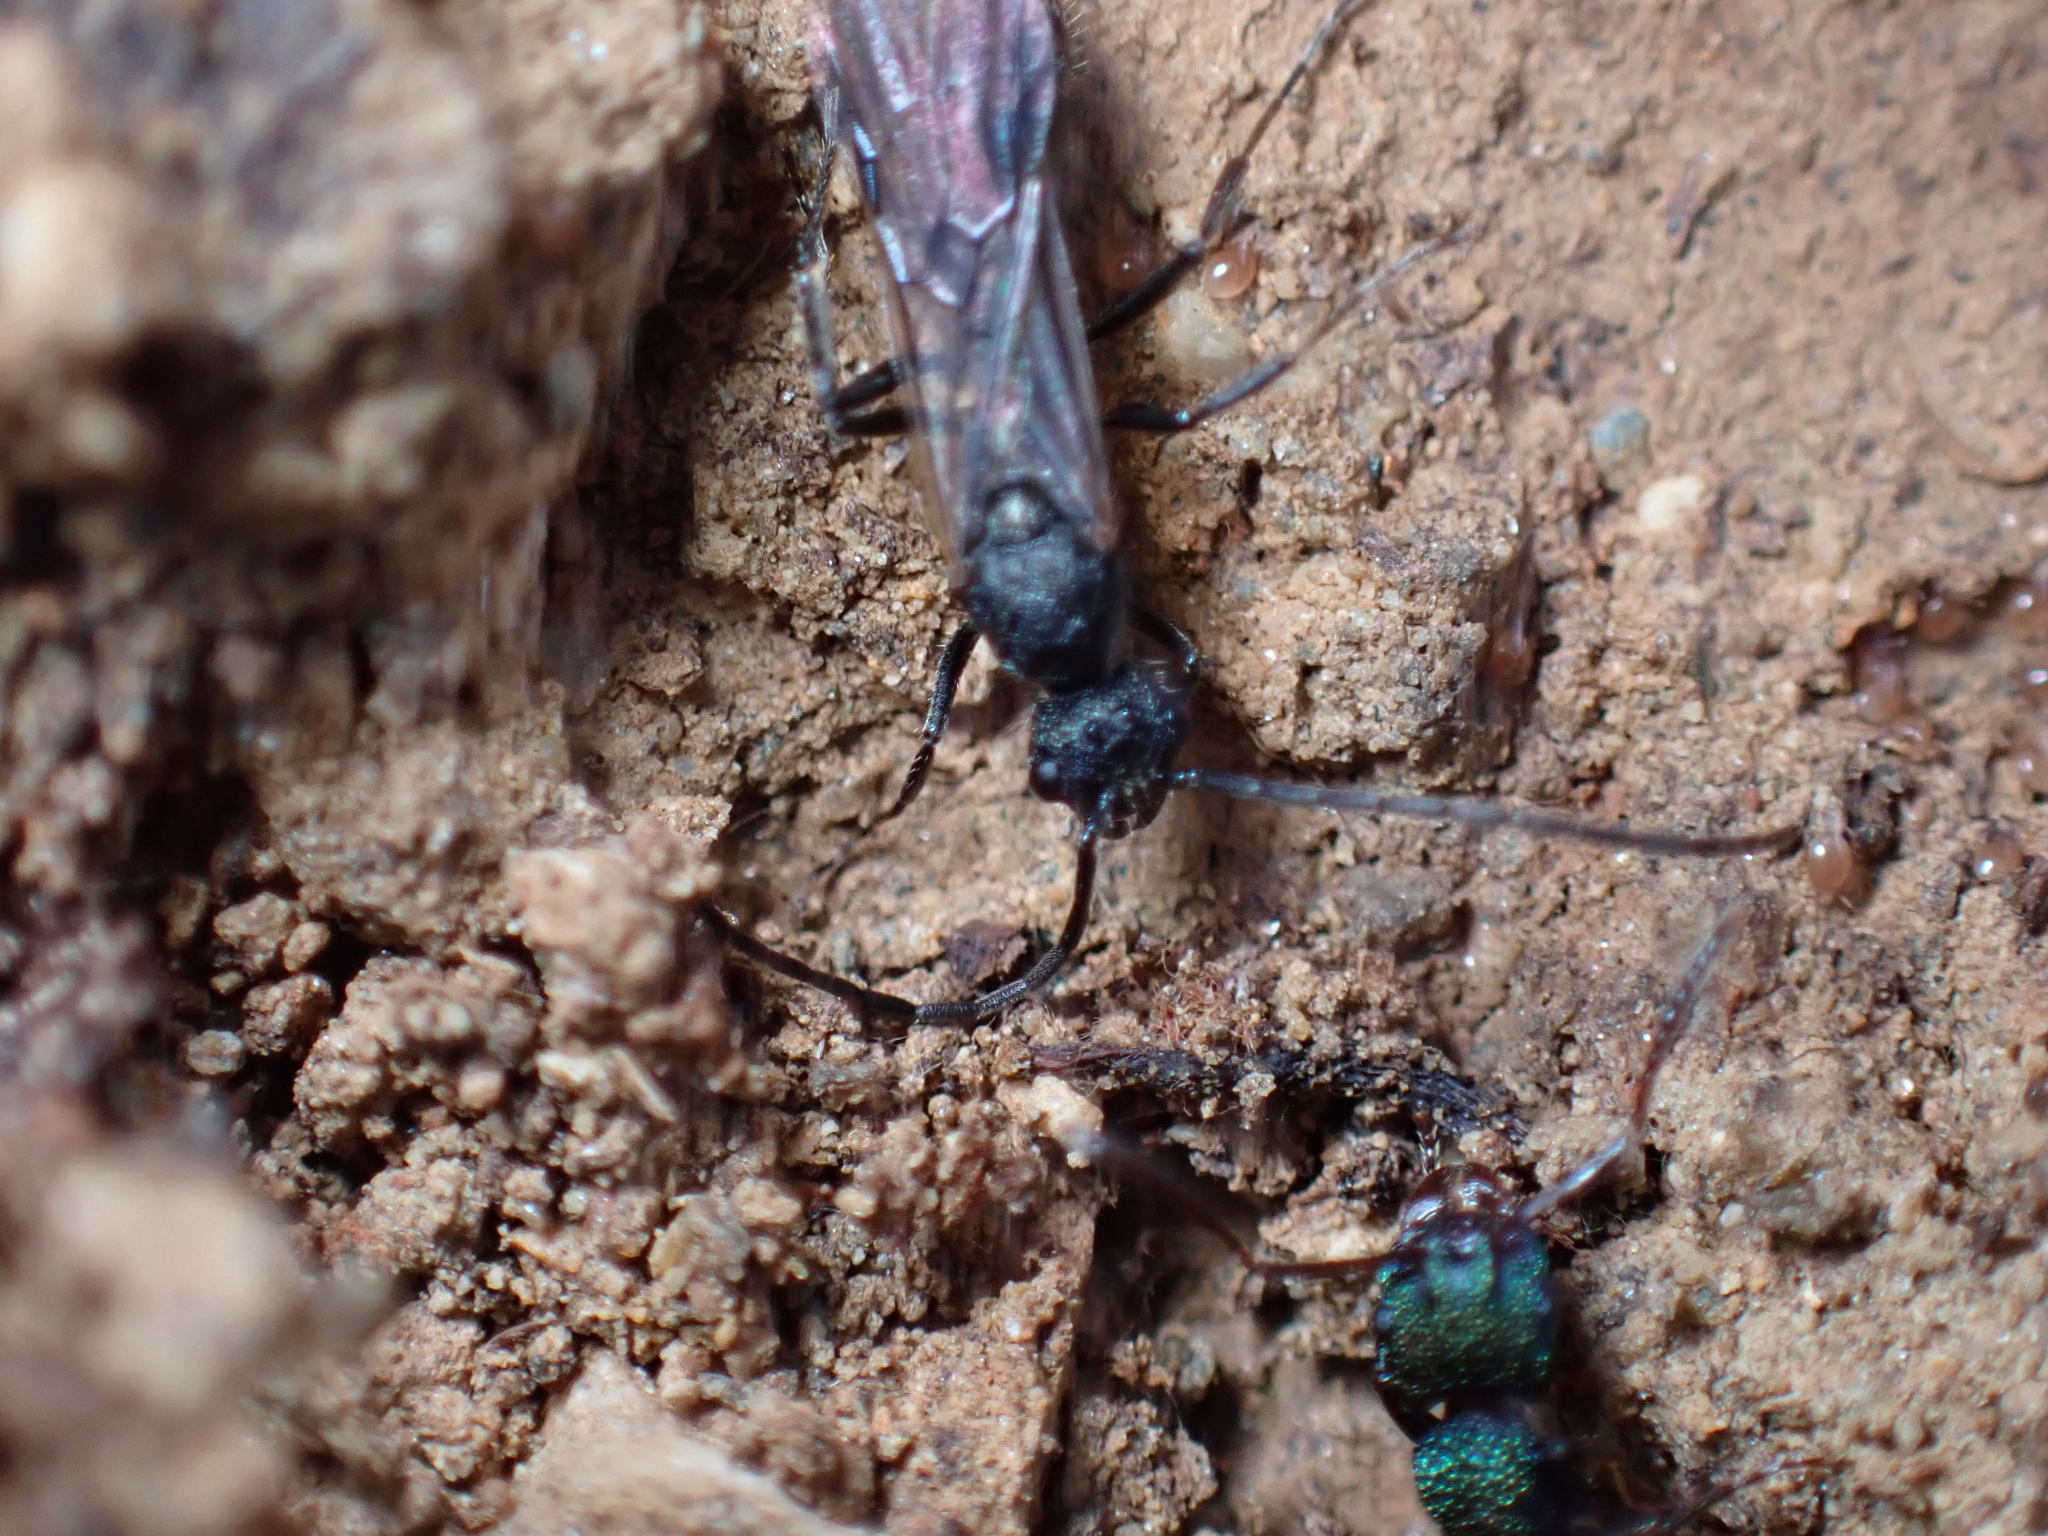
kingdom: Animalia
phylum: Arthropoda
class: Insecta
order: Hymenoptera
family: Formicidae
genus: Rhytidoponera
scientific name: Rhytidoponera metallica
